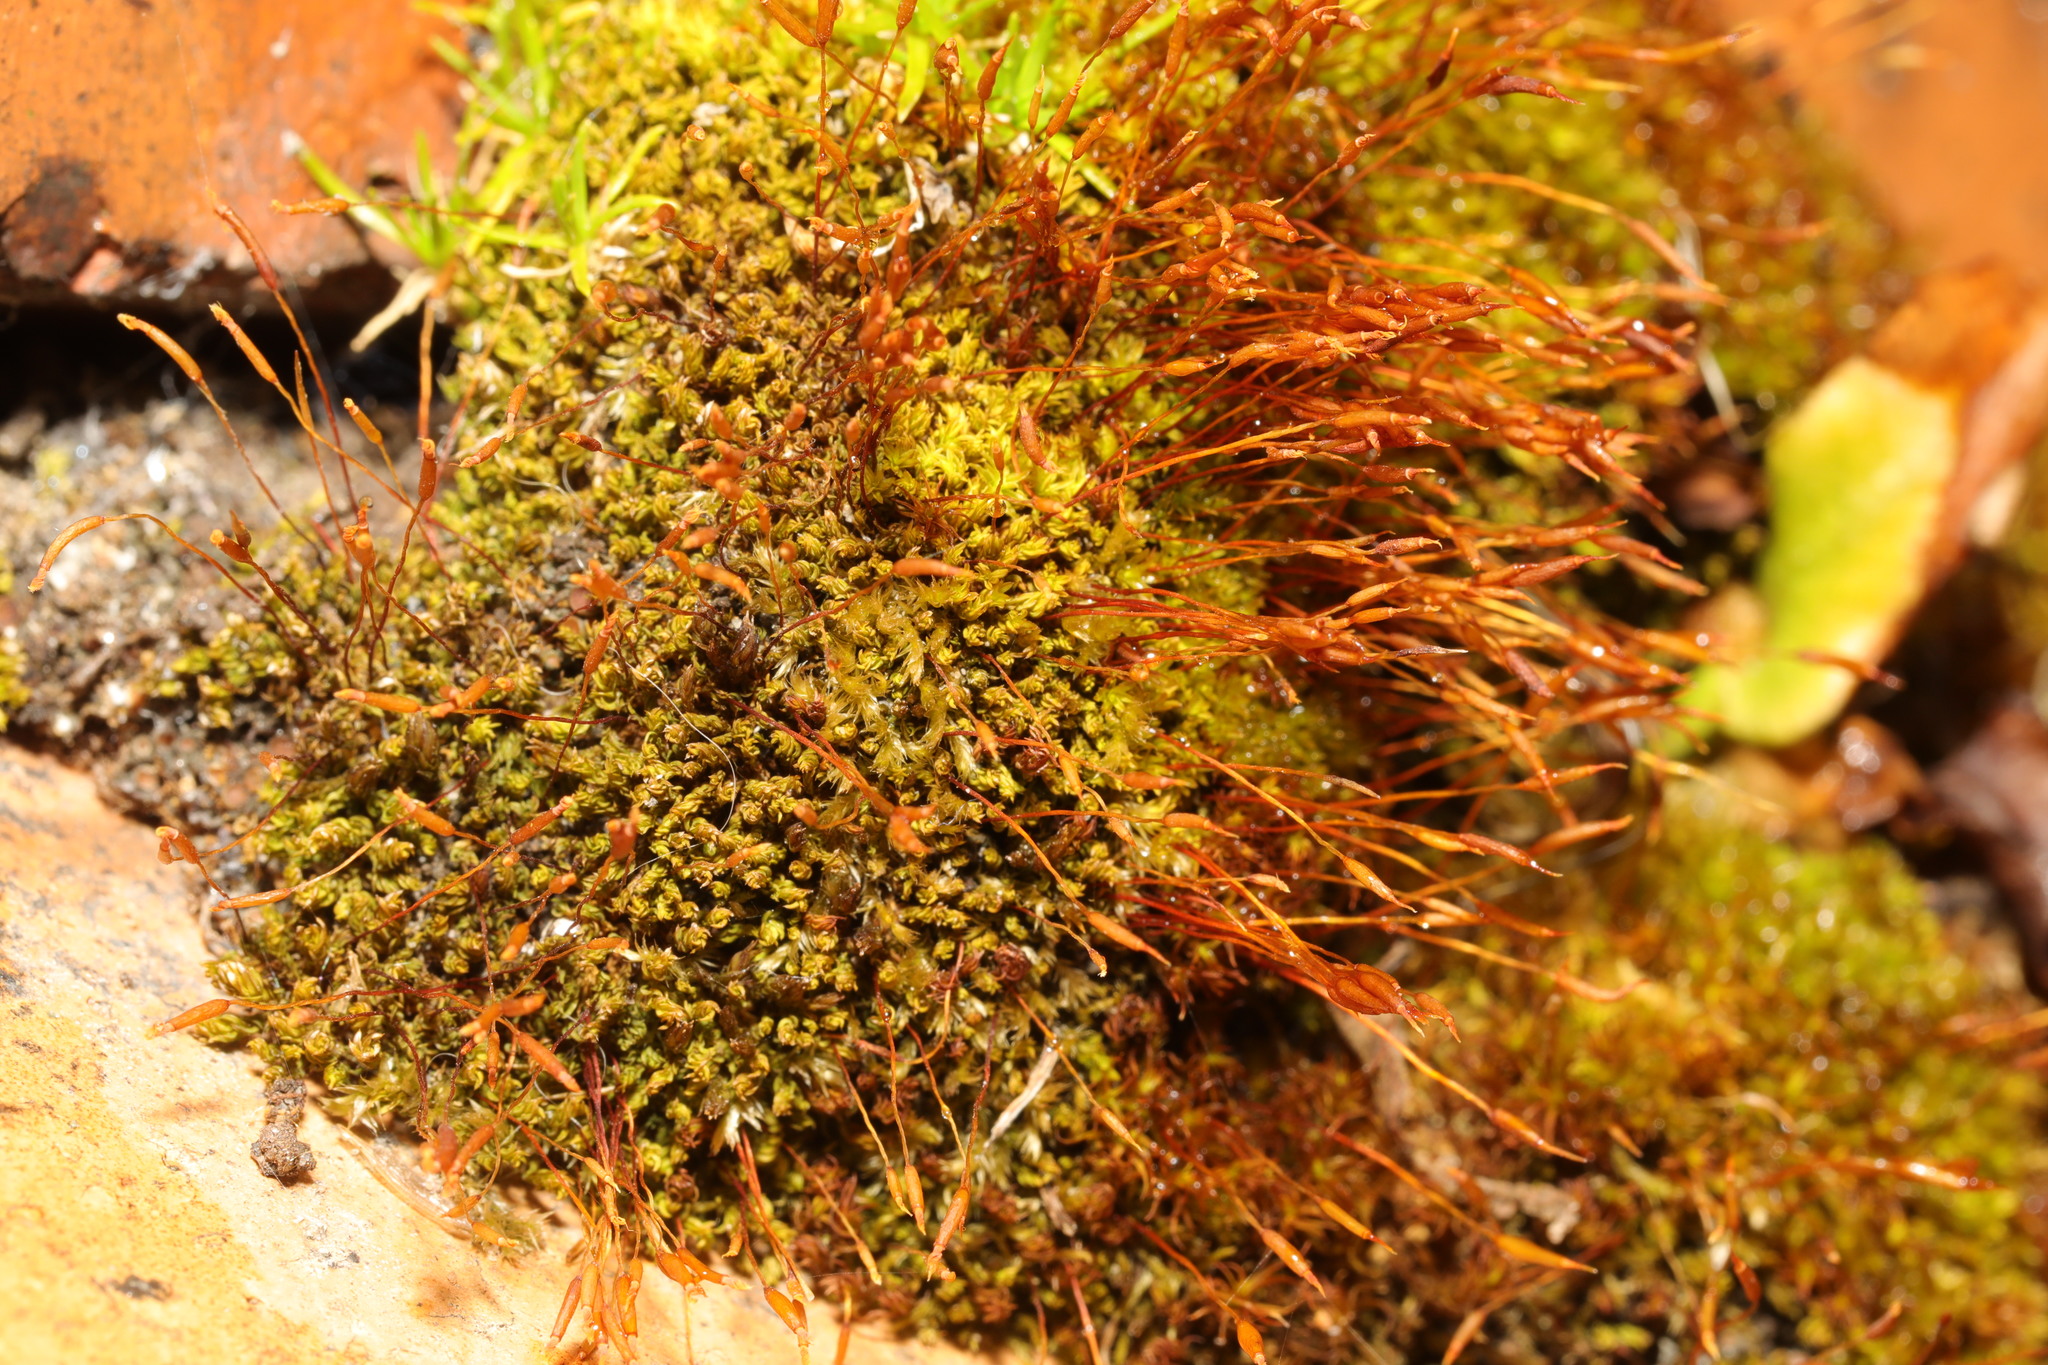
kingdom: Plantae
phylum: Bryophyta
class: Bryopsida
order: Pottiales
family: Pottiaceae
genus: Barbula
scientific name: Barbula unguiculata
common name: Prickly beard moss
